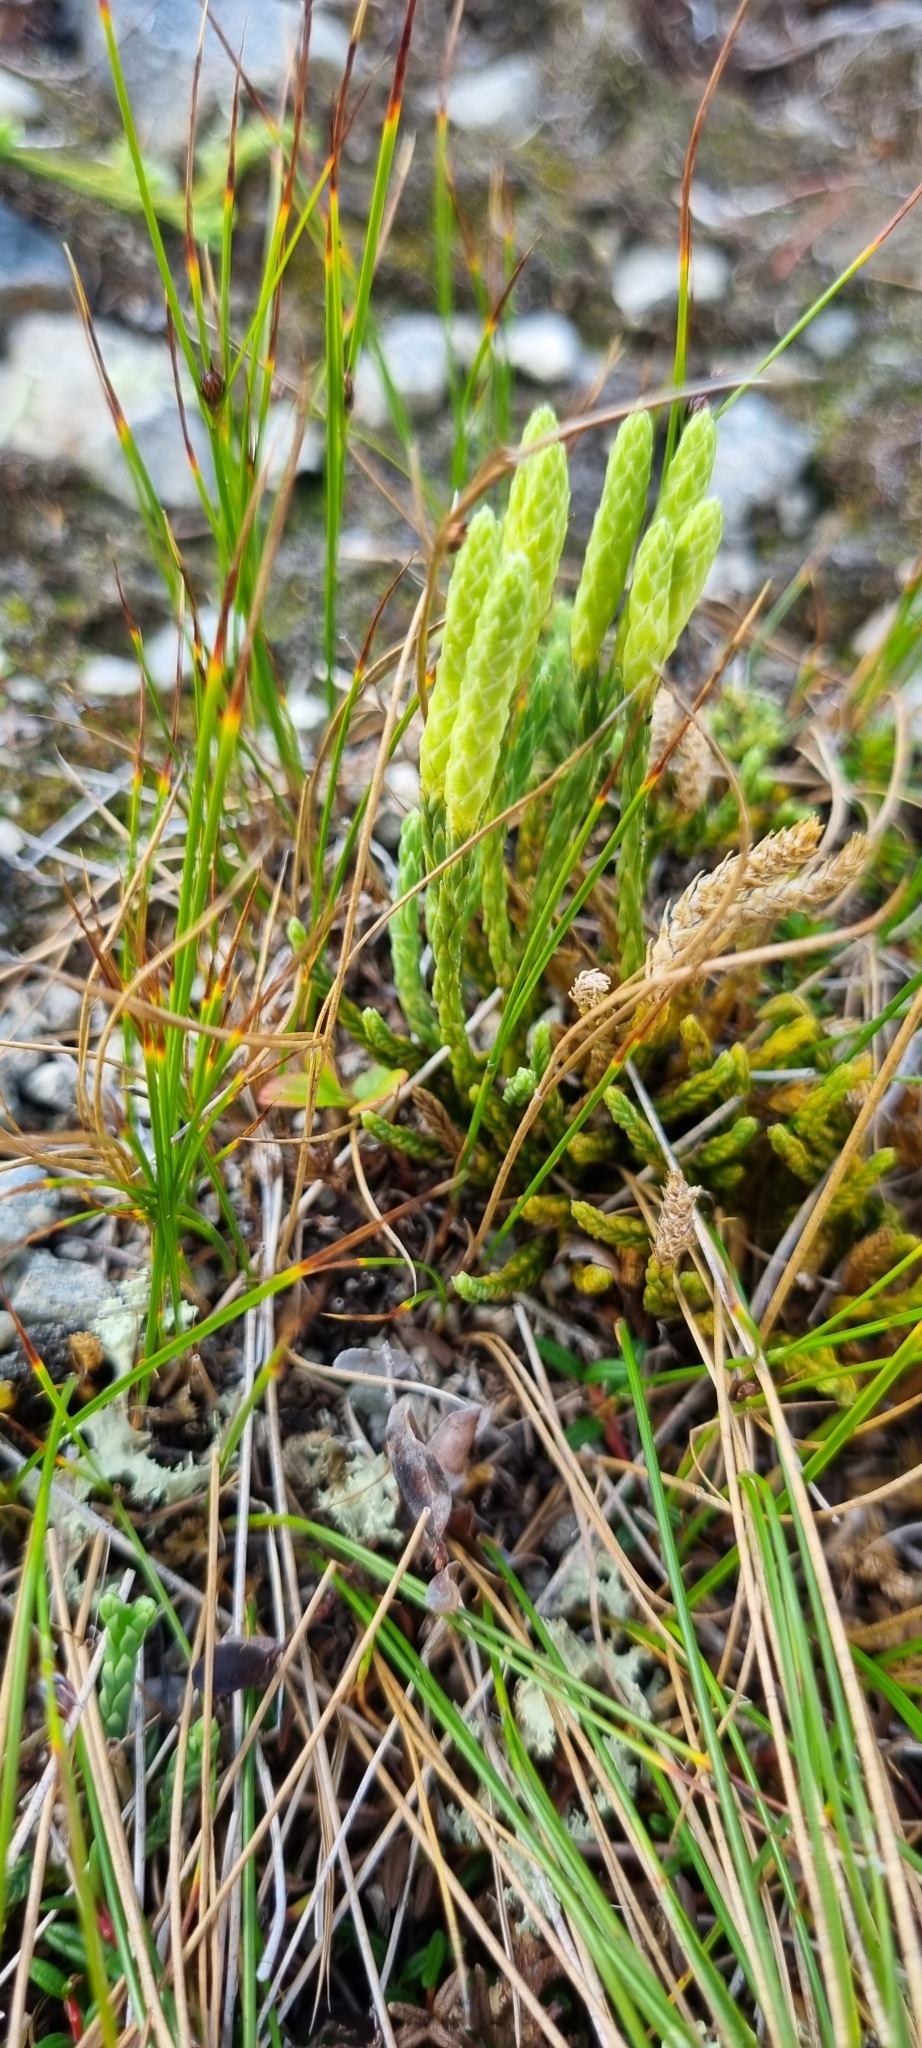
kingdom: Plantae
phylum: Tracheophyta
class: Lycopodiopsida
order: Lycopodiales
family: Lycopodiaceae
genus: Diphasiastrum
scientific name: Diphasiastrum alpinum
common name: Alpine clubmoss
